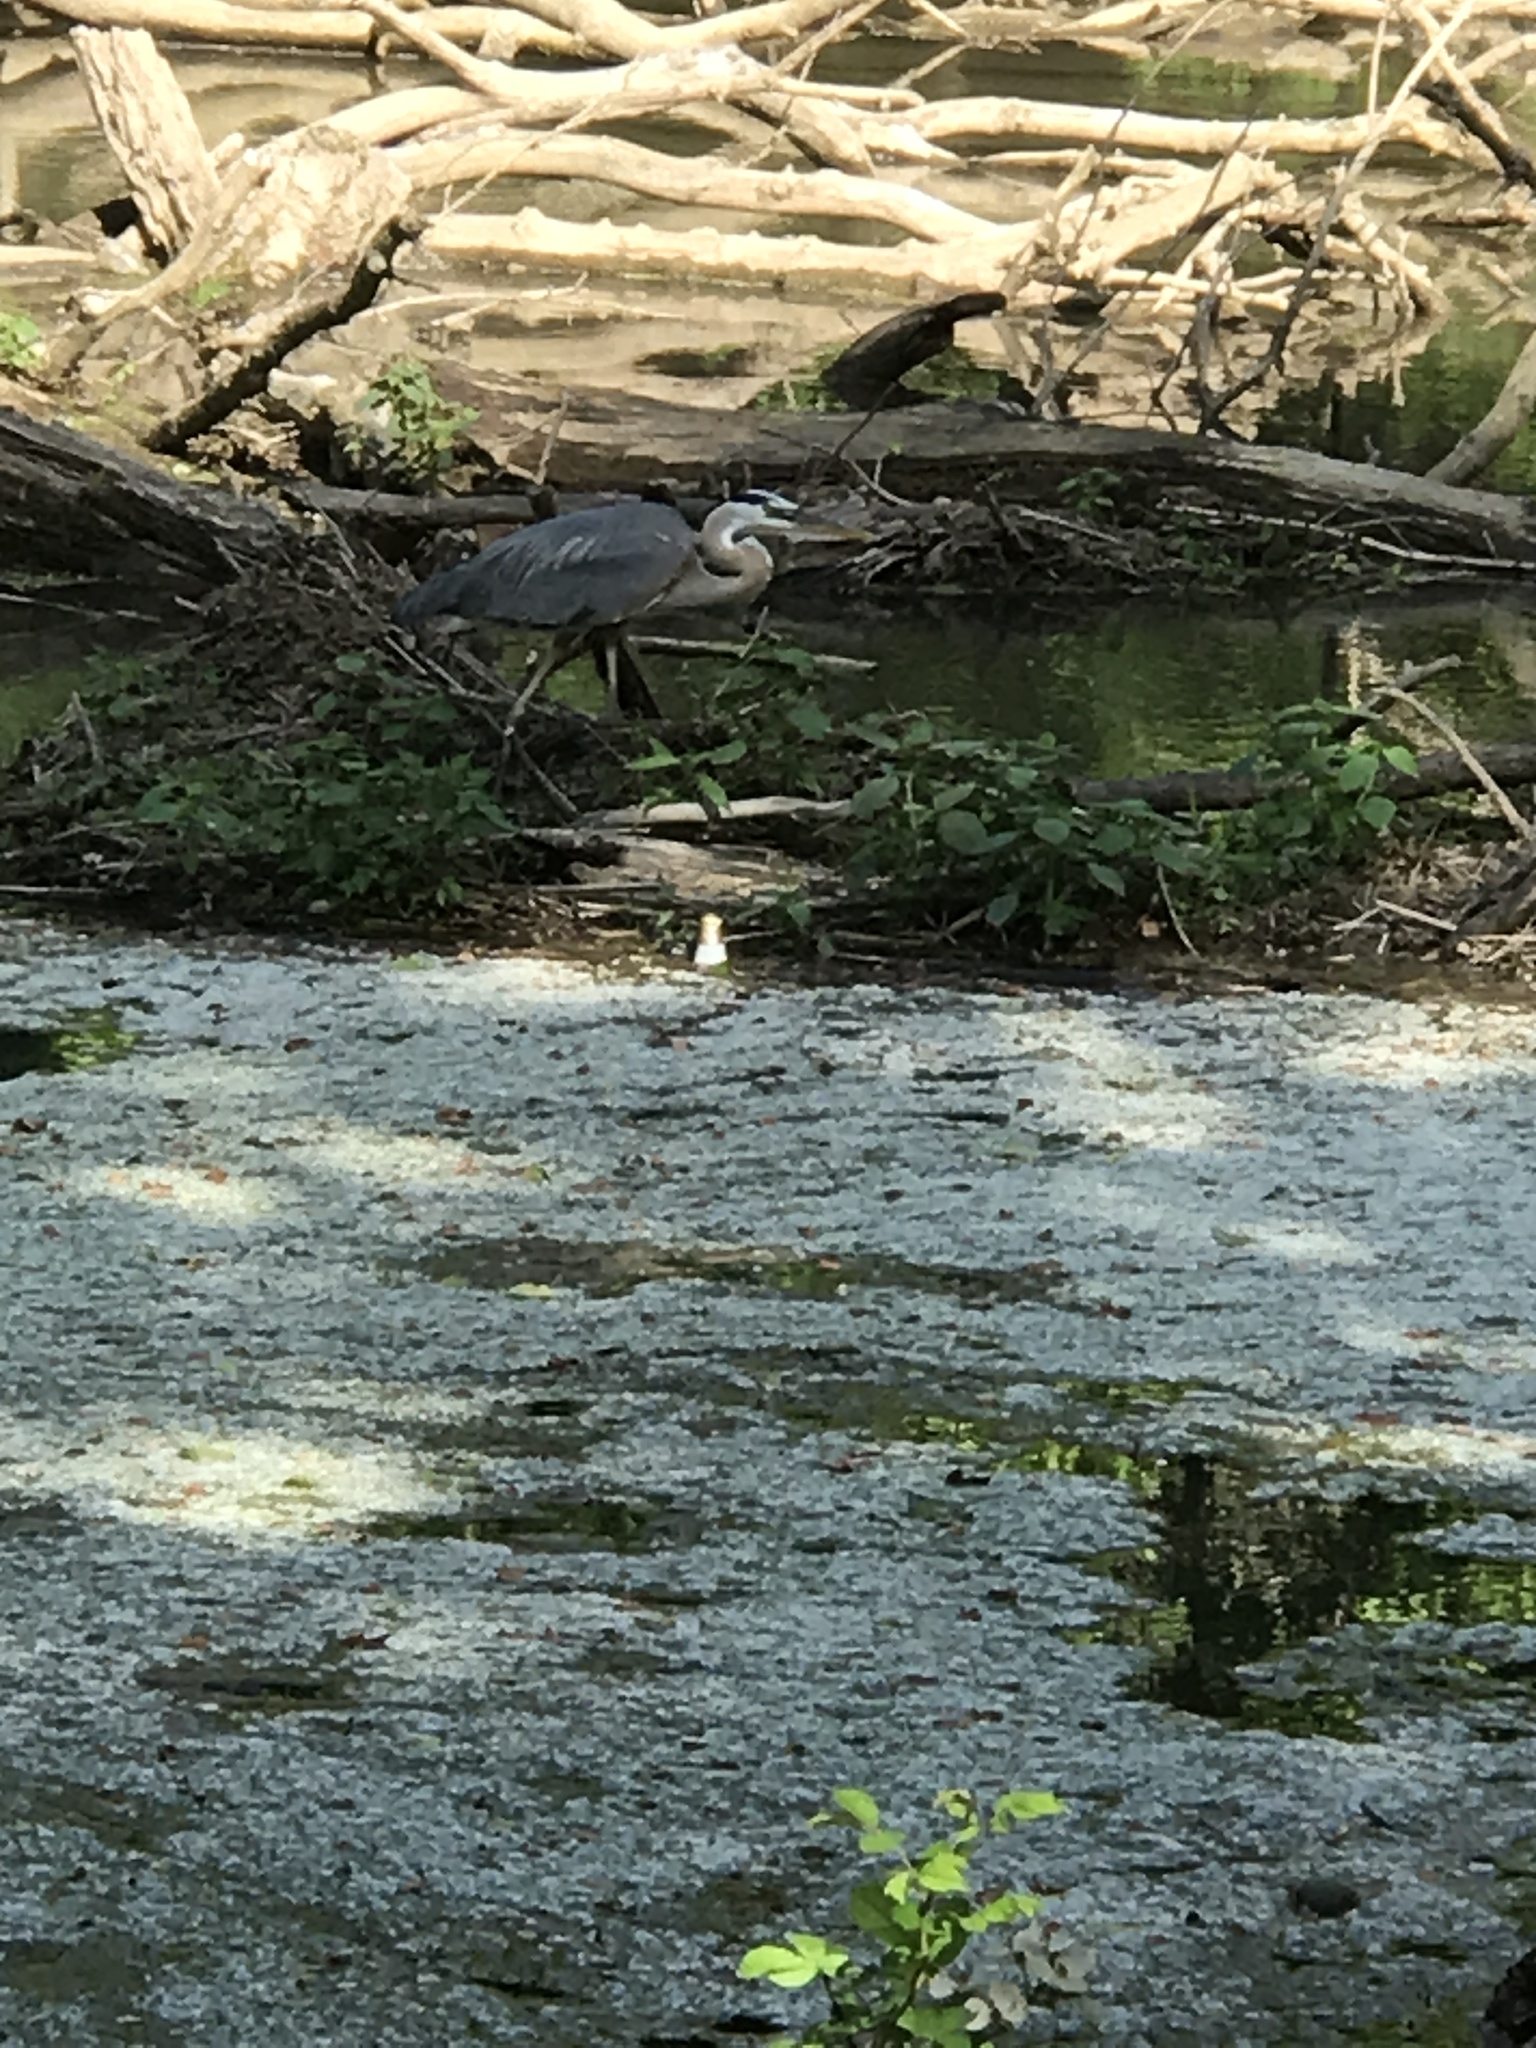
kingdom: Animalia
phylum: Chordata
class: Aves
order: Pelecaniformes
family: Ardeidae
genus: Ardea
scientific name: Ardea herodias
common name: Great blue heron
